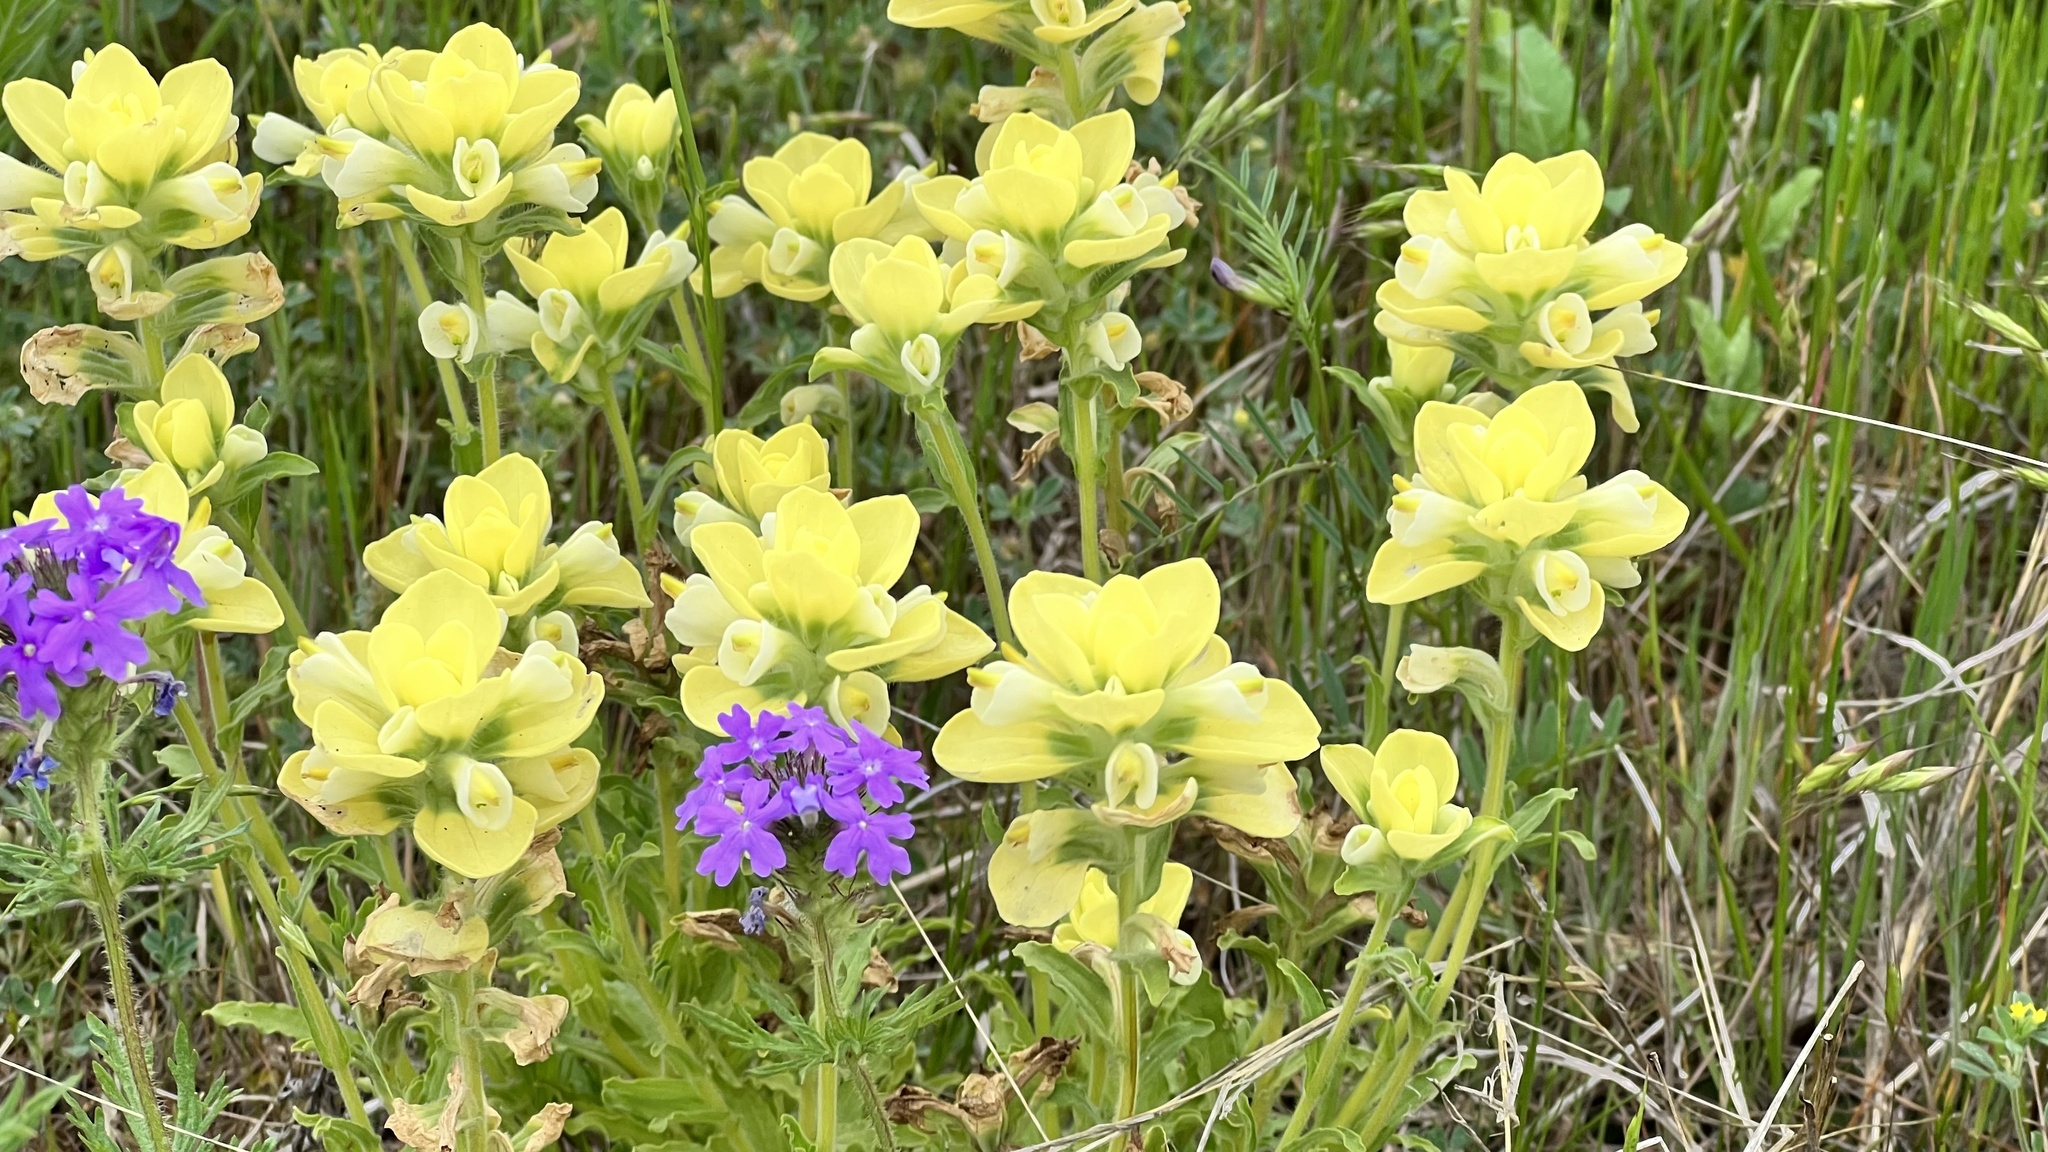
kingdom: Plantae
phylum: Tracheophyta
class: Magnoliopsida
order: Lamiales
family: Orobanchaceae
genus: Castilleja
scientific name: Castilleja indivisa
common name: Texas paintbrush
